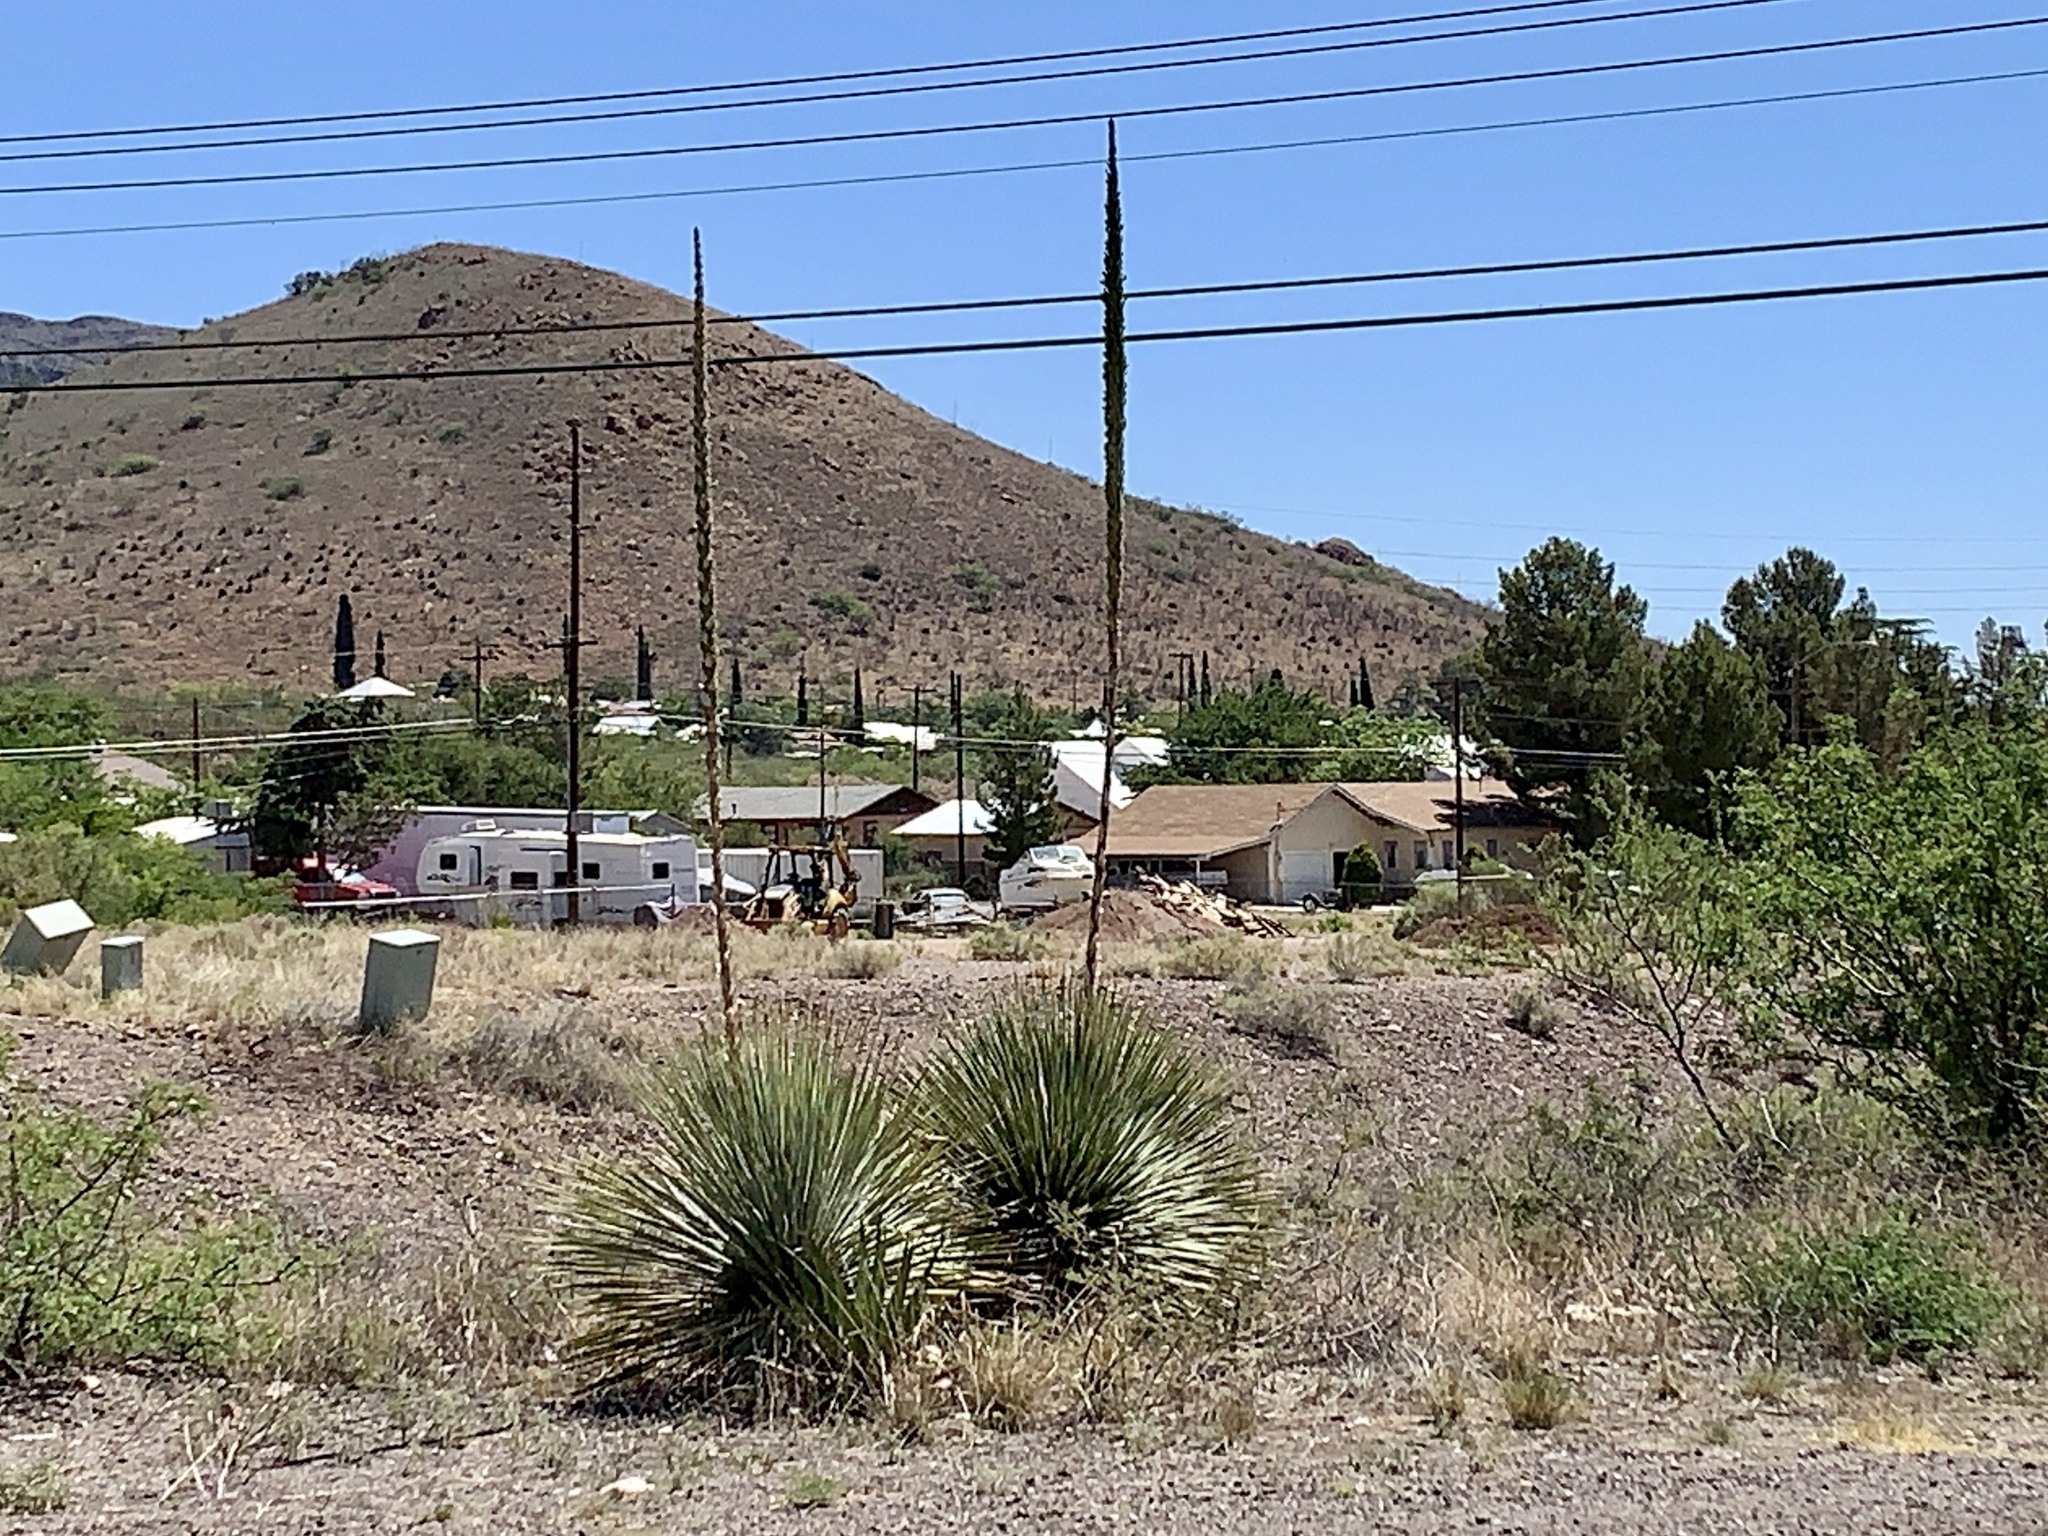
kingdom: Plantae
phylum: Tracheophyta
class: Liliopsida
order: Asparagales
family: Asparagaceae
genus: Dasylirion
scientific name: Dasylirion wheeleri
